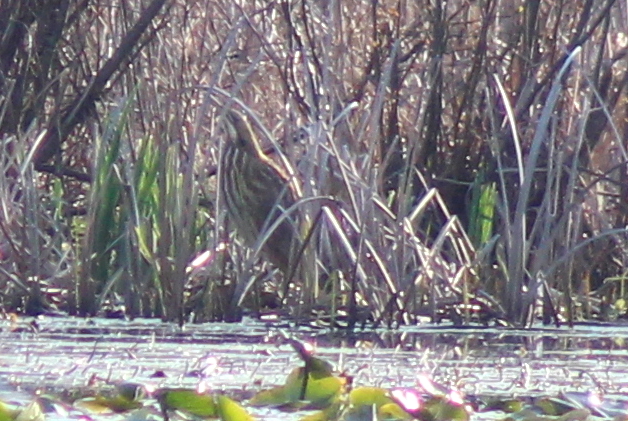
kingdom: Animalia
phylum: Chordata
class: Aves
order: Pelecaniformes
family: Ardeidae
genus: Botaurus
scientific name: Botaurus lentiginosus
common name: American bittern
